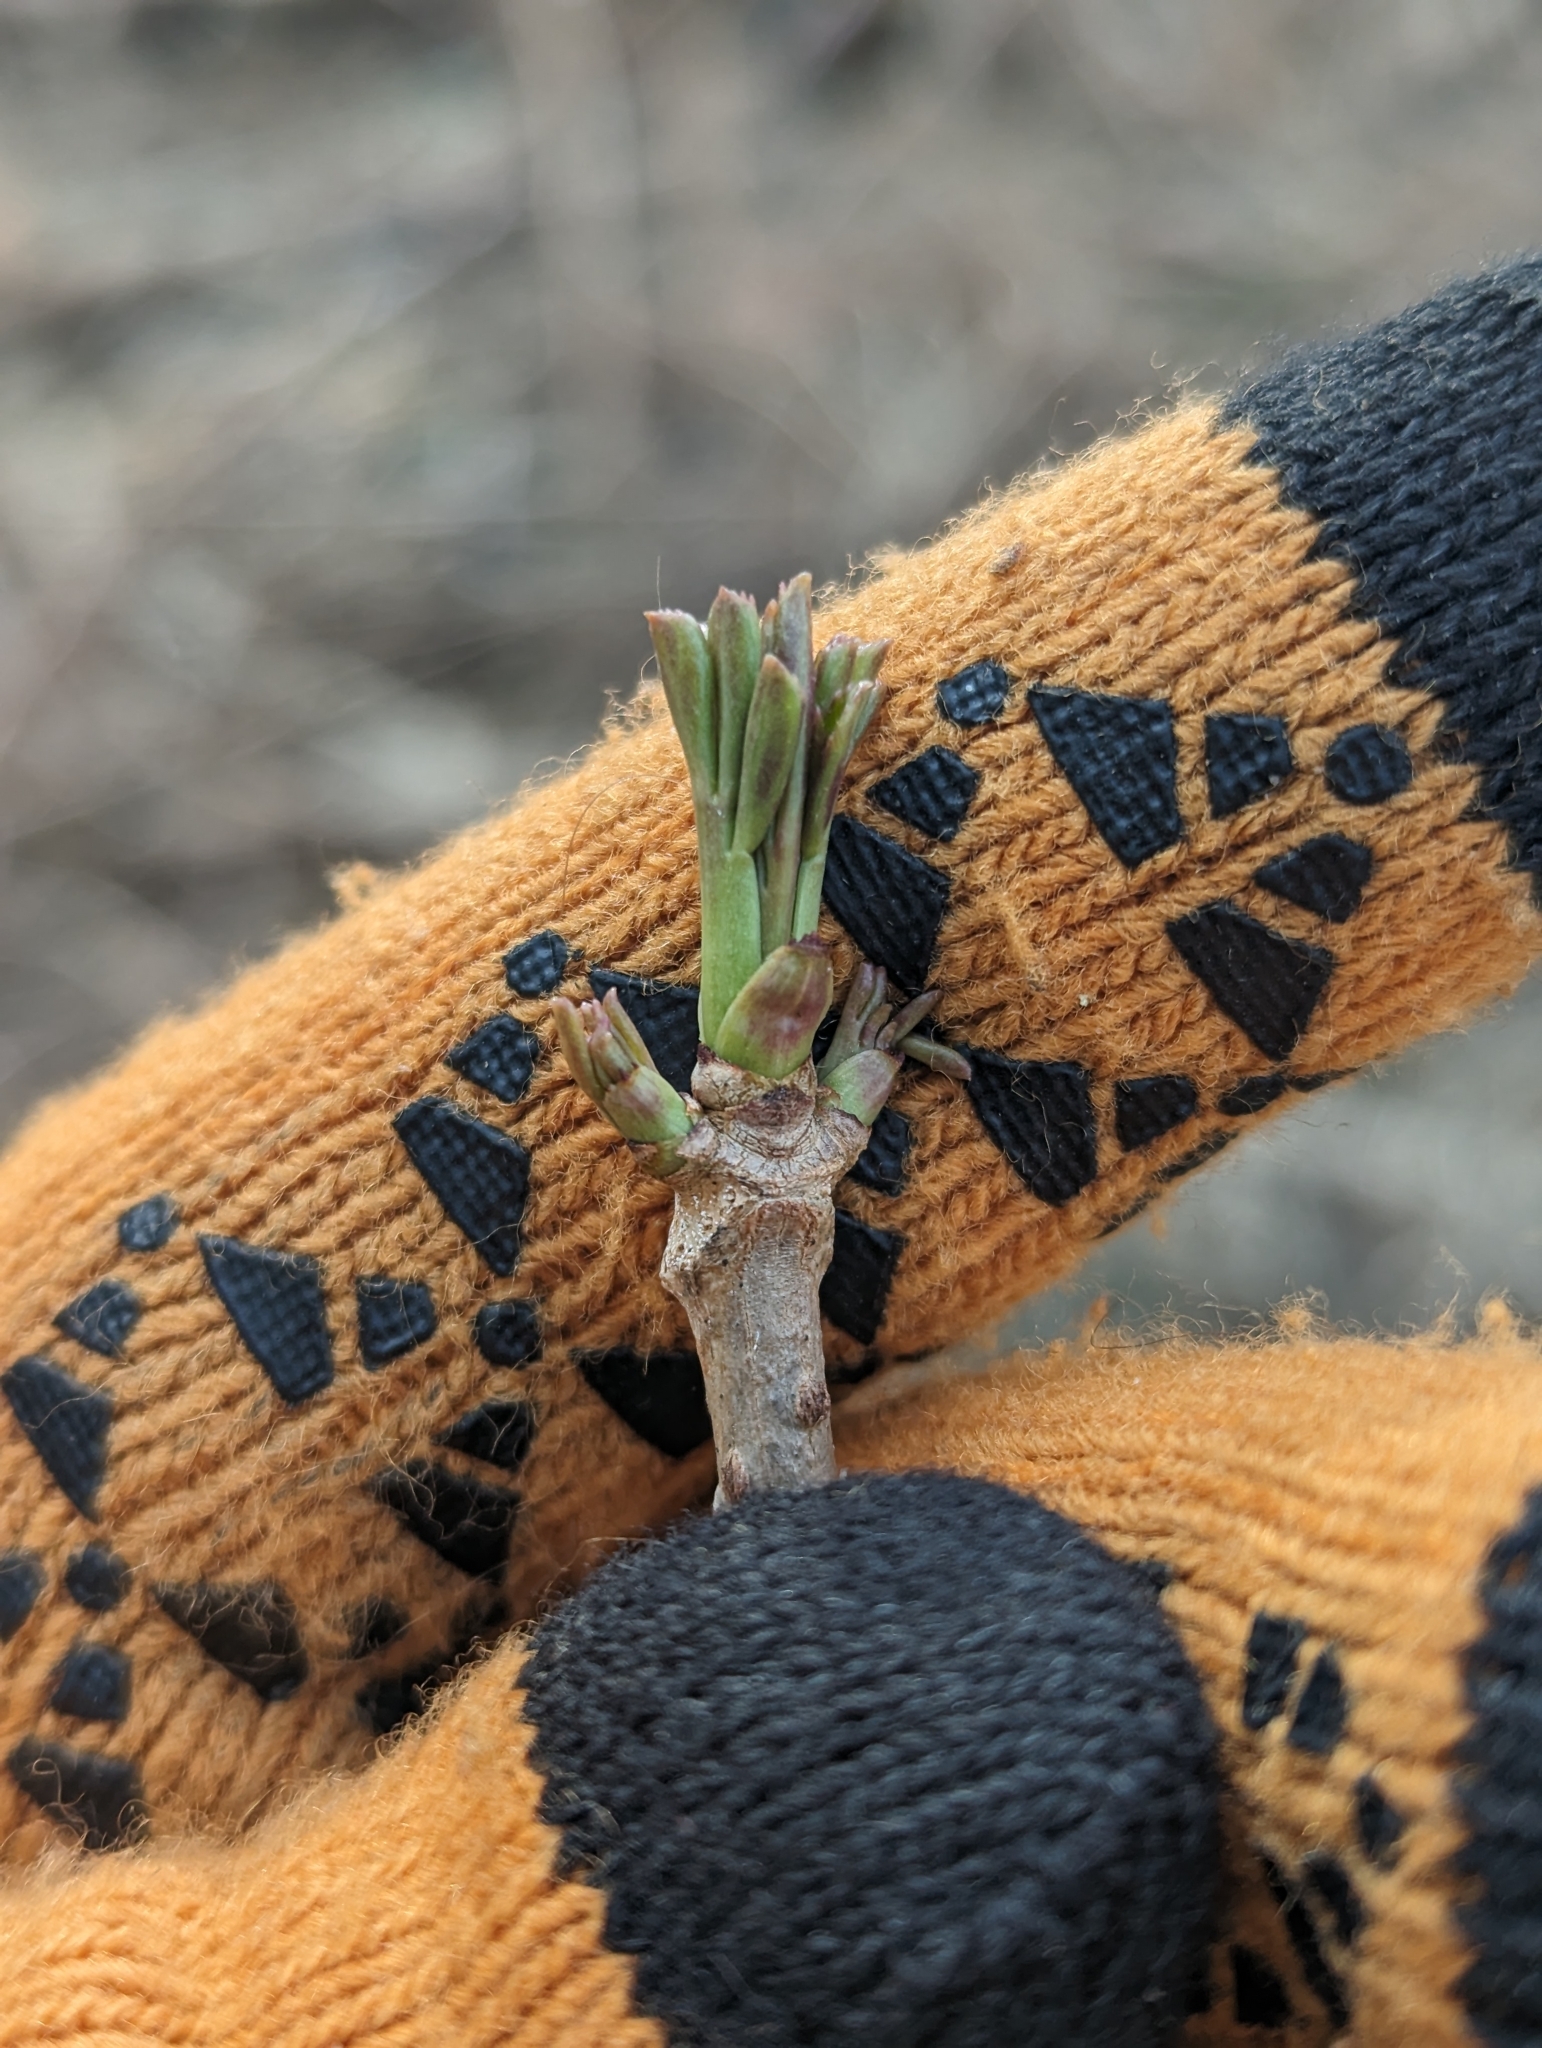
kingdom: Plantae
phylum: Tracheophyta
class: Magnoliopsida
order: Dipsacales
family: Viburnaceae
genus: Sambucus
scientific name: Sambucus canadensis
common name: American elder
